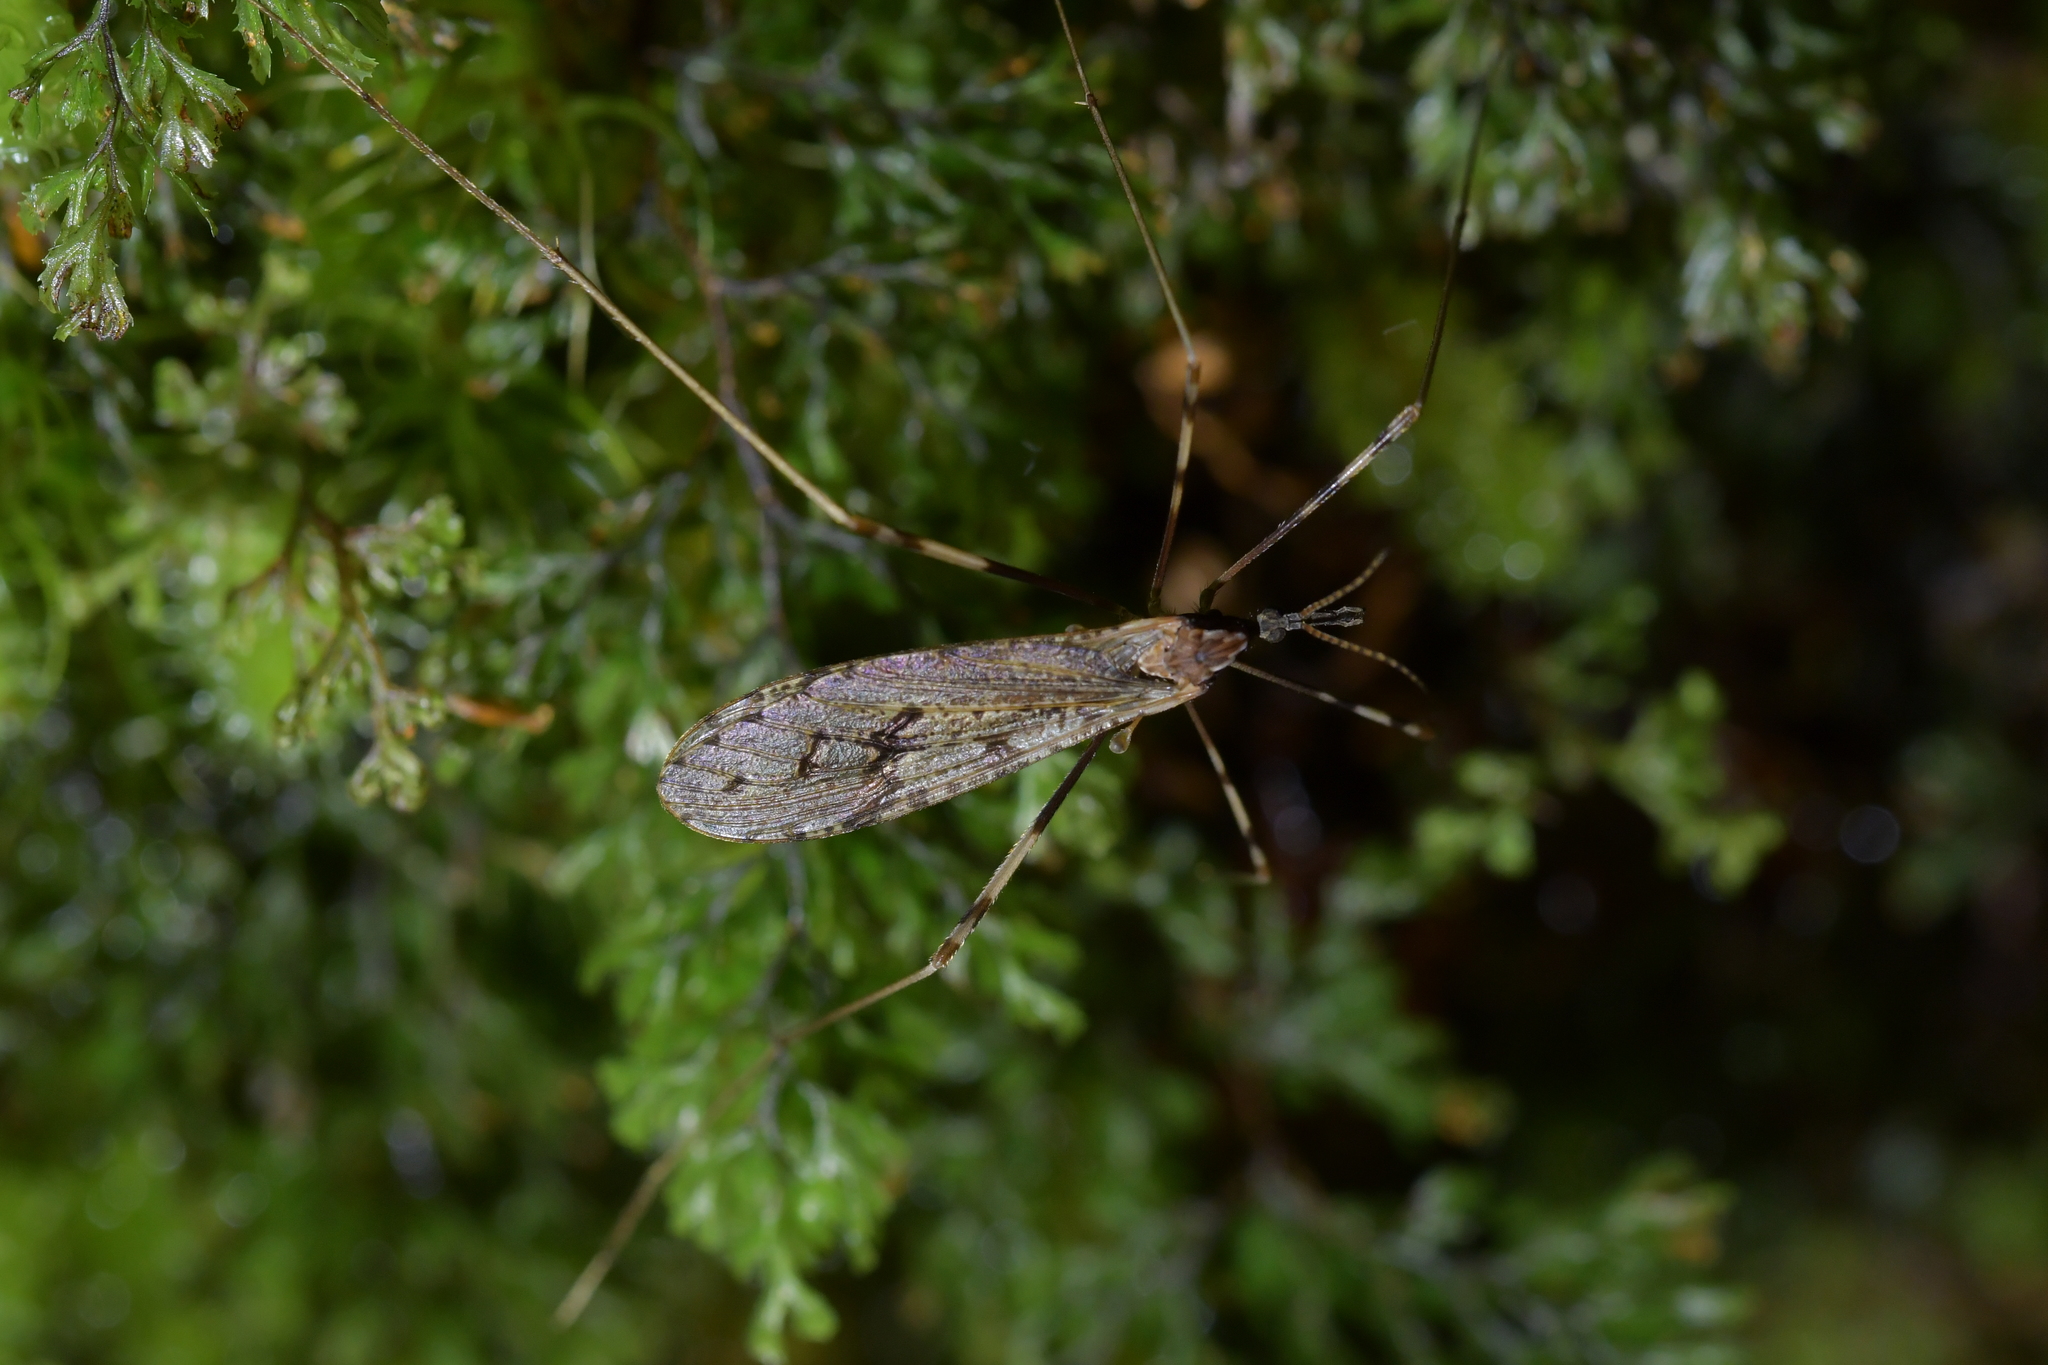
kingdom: Animalia
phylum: Arthropoda
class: Insecta
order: Diptera
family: Limoniidae
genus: Rhamphophila
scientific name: Rhamphophila sinistra
